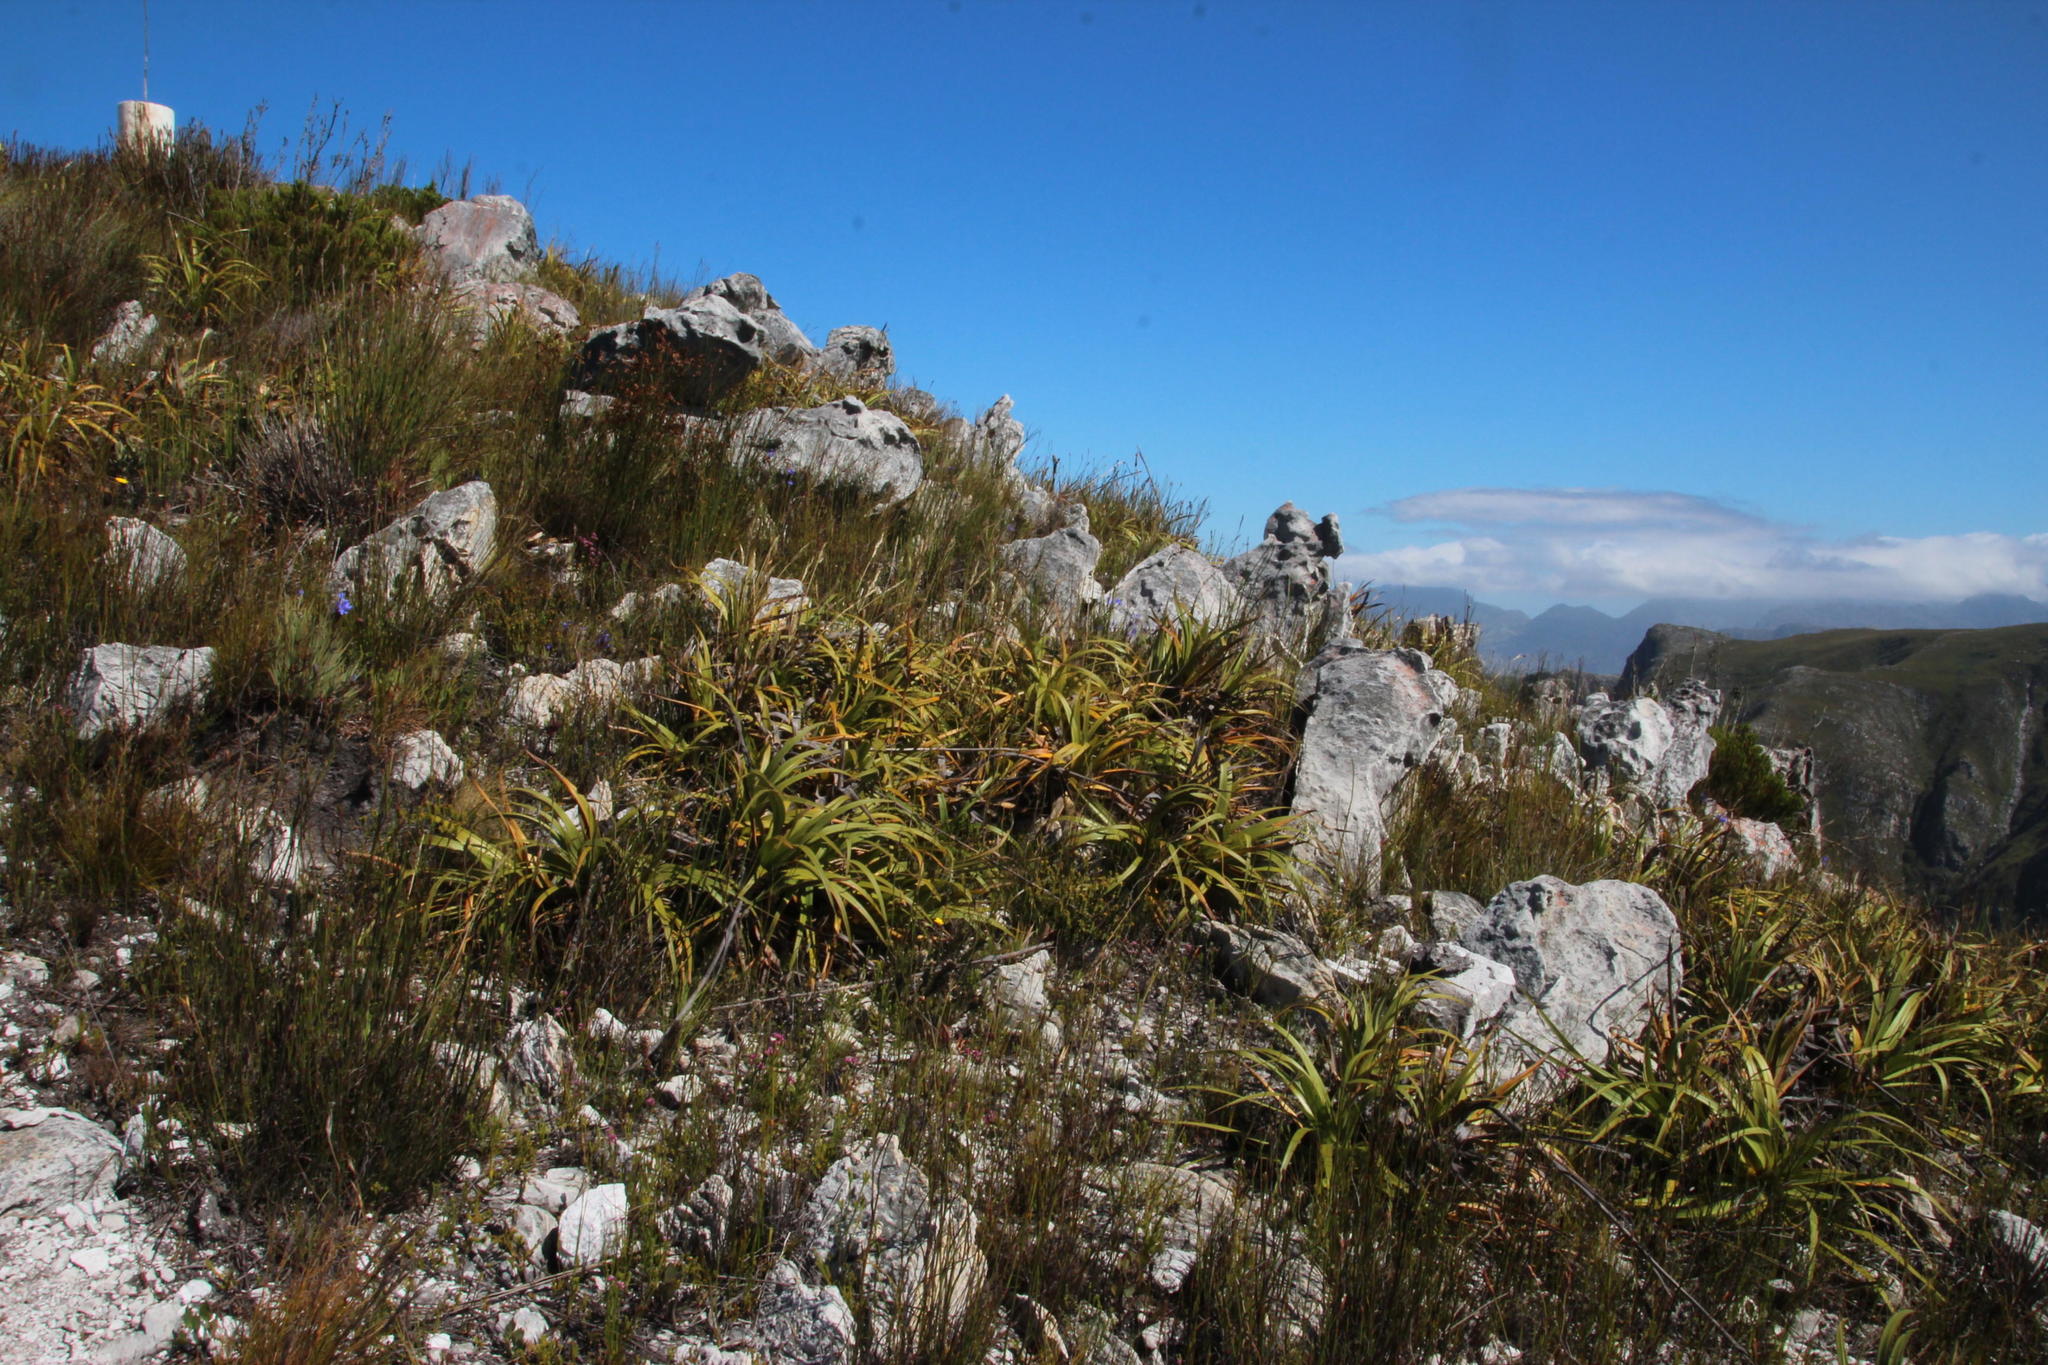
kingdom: Plantae
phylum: Tracheophyta
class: Liliopsida
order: Poales
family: Cyperaceae
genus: Tetraria
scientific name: Tetraria thermalis
